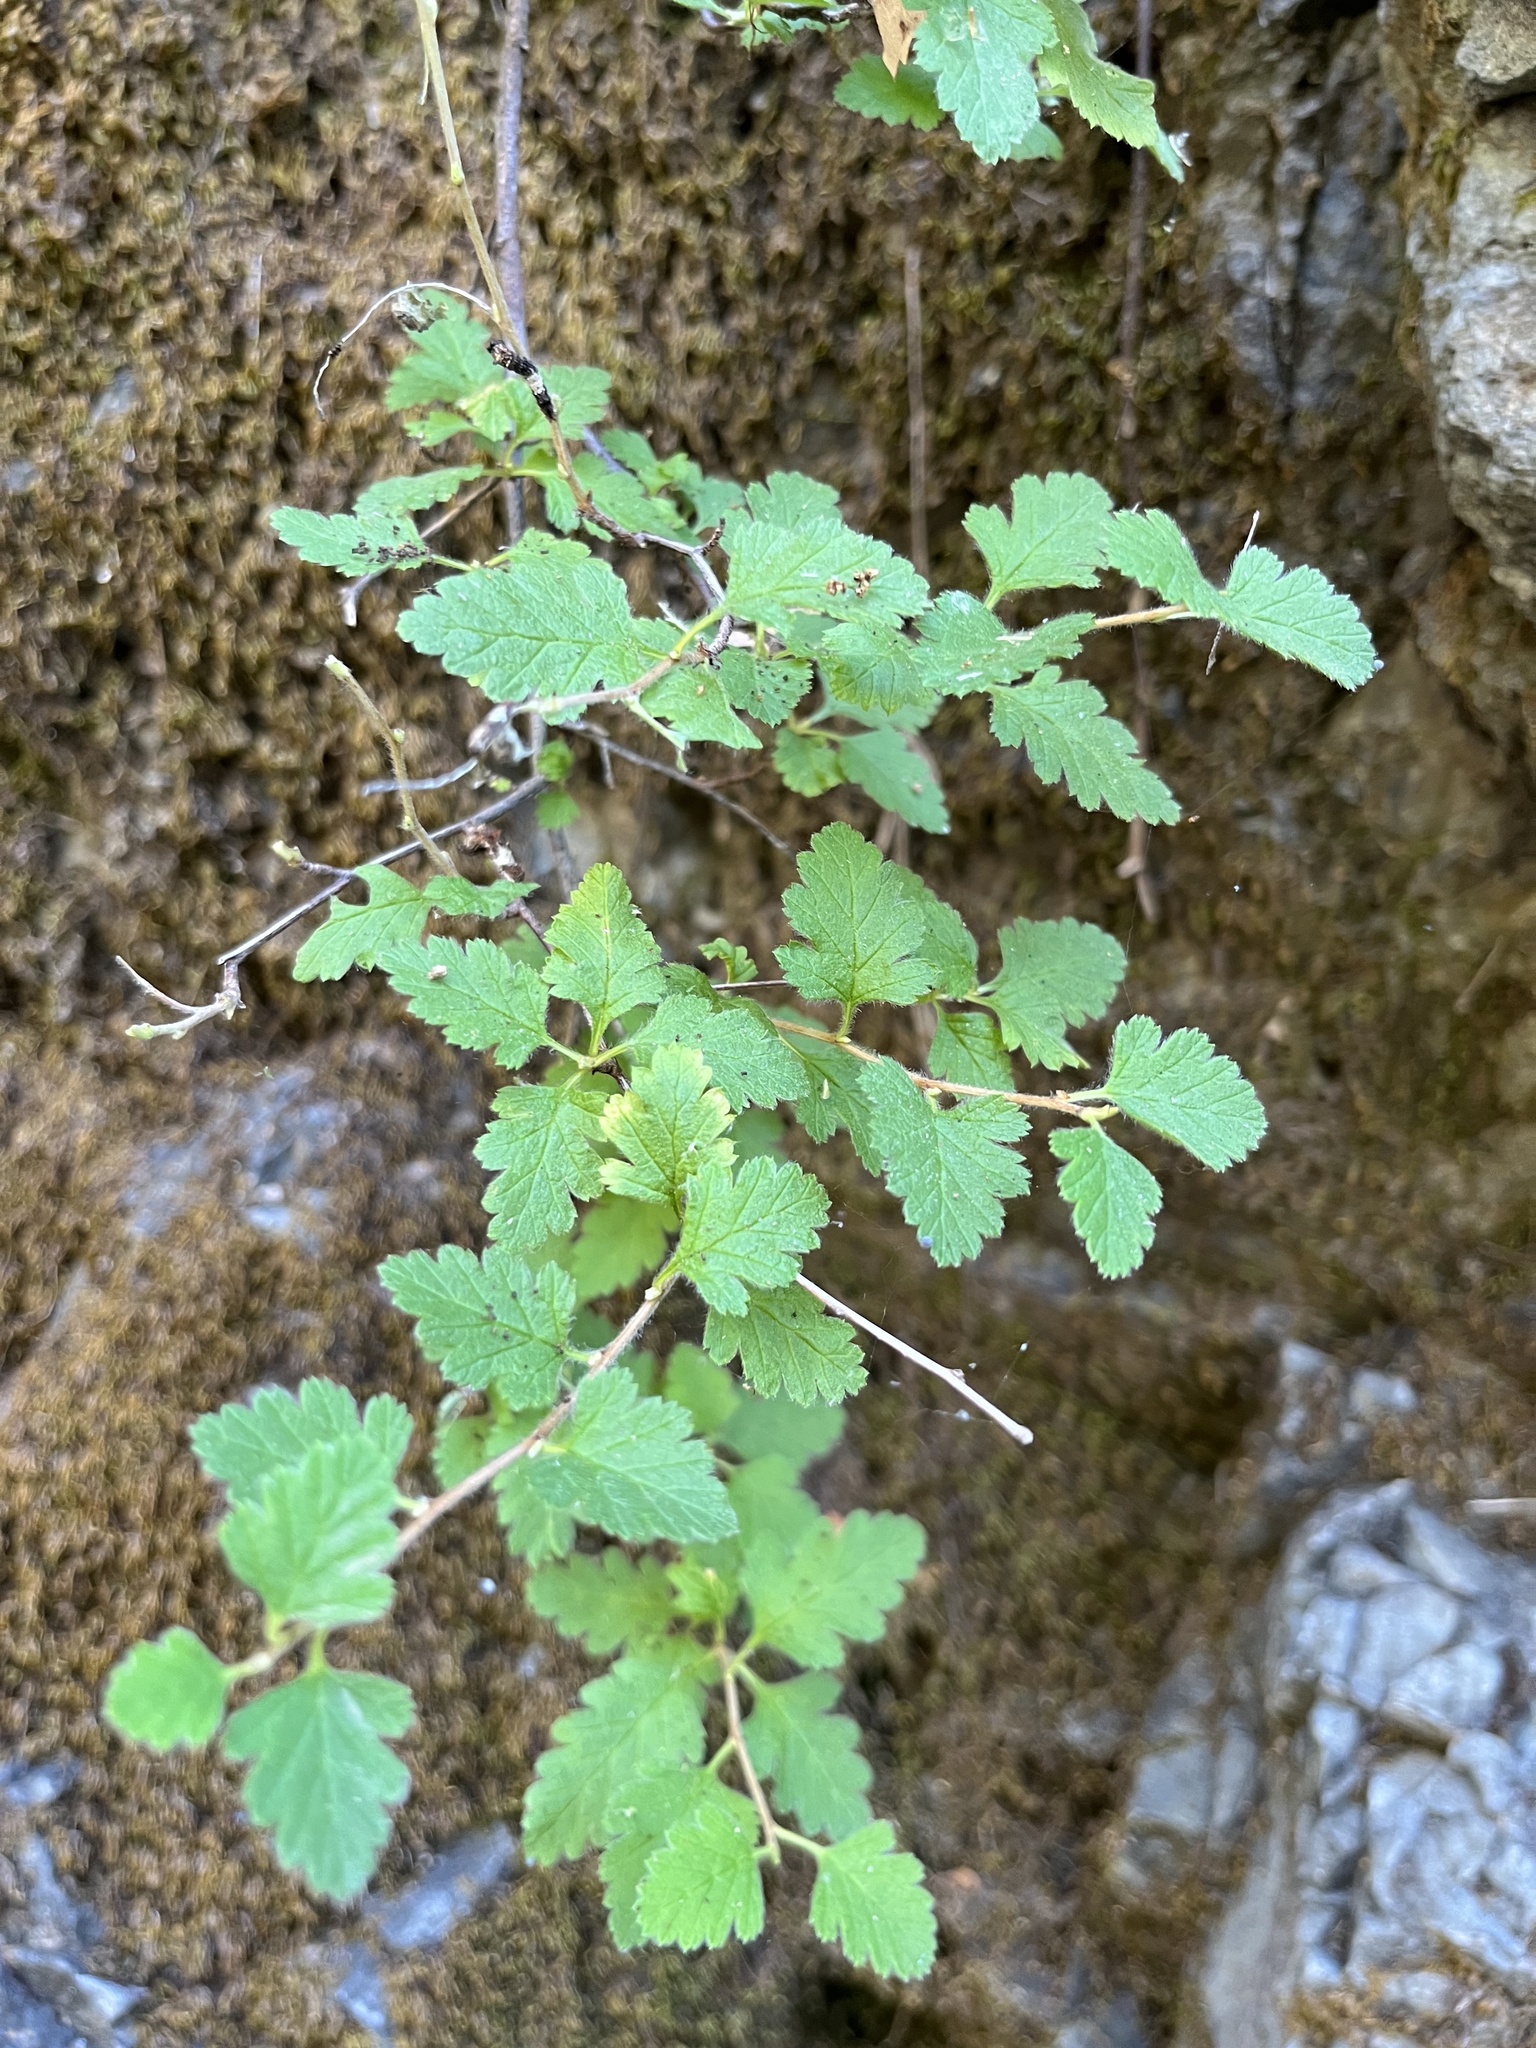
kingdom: Plantae
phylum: Tracheophyta
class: Magnoliopsida
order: Rosales
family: Rosaceae
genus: Holodiscus
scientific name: Holodiscus discolor
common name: Oceanspray
